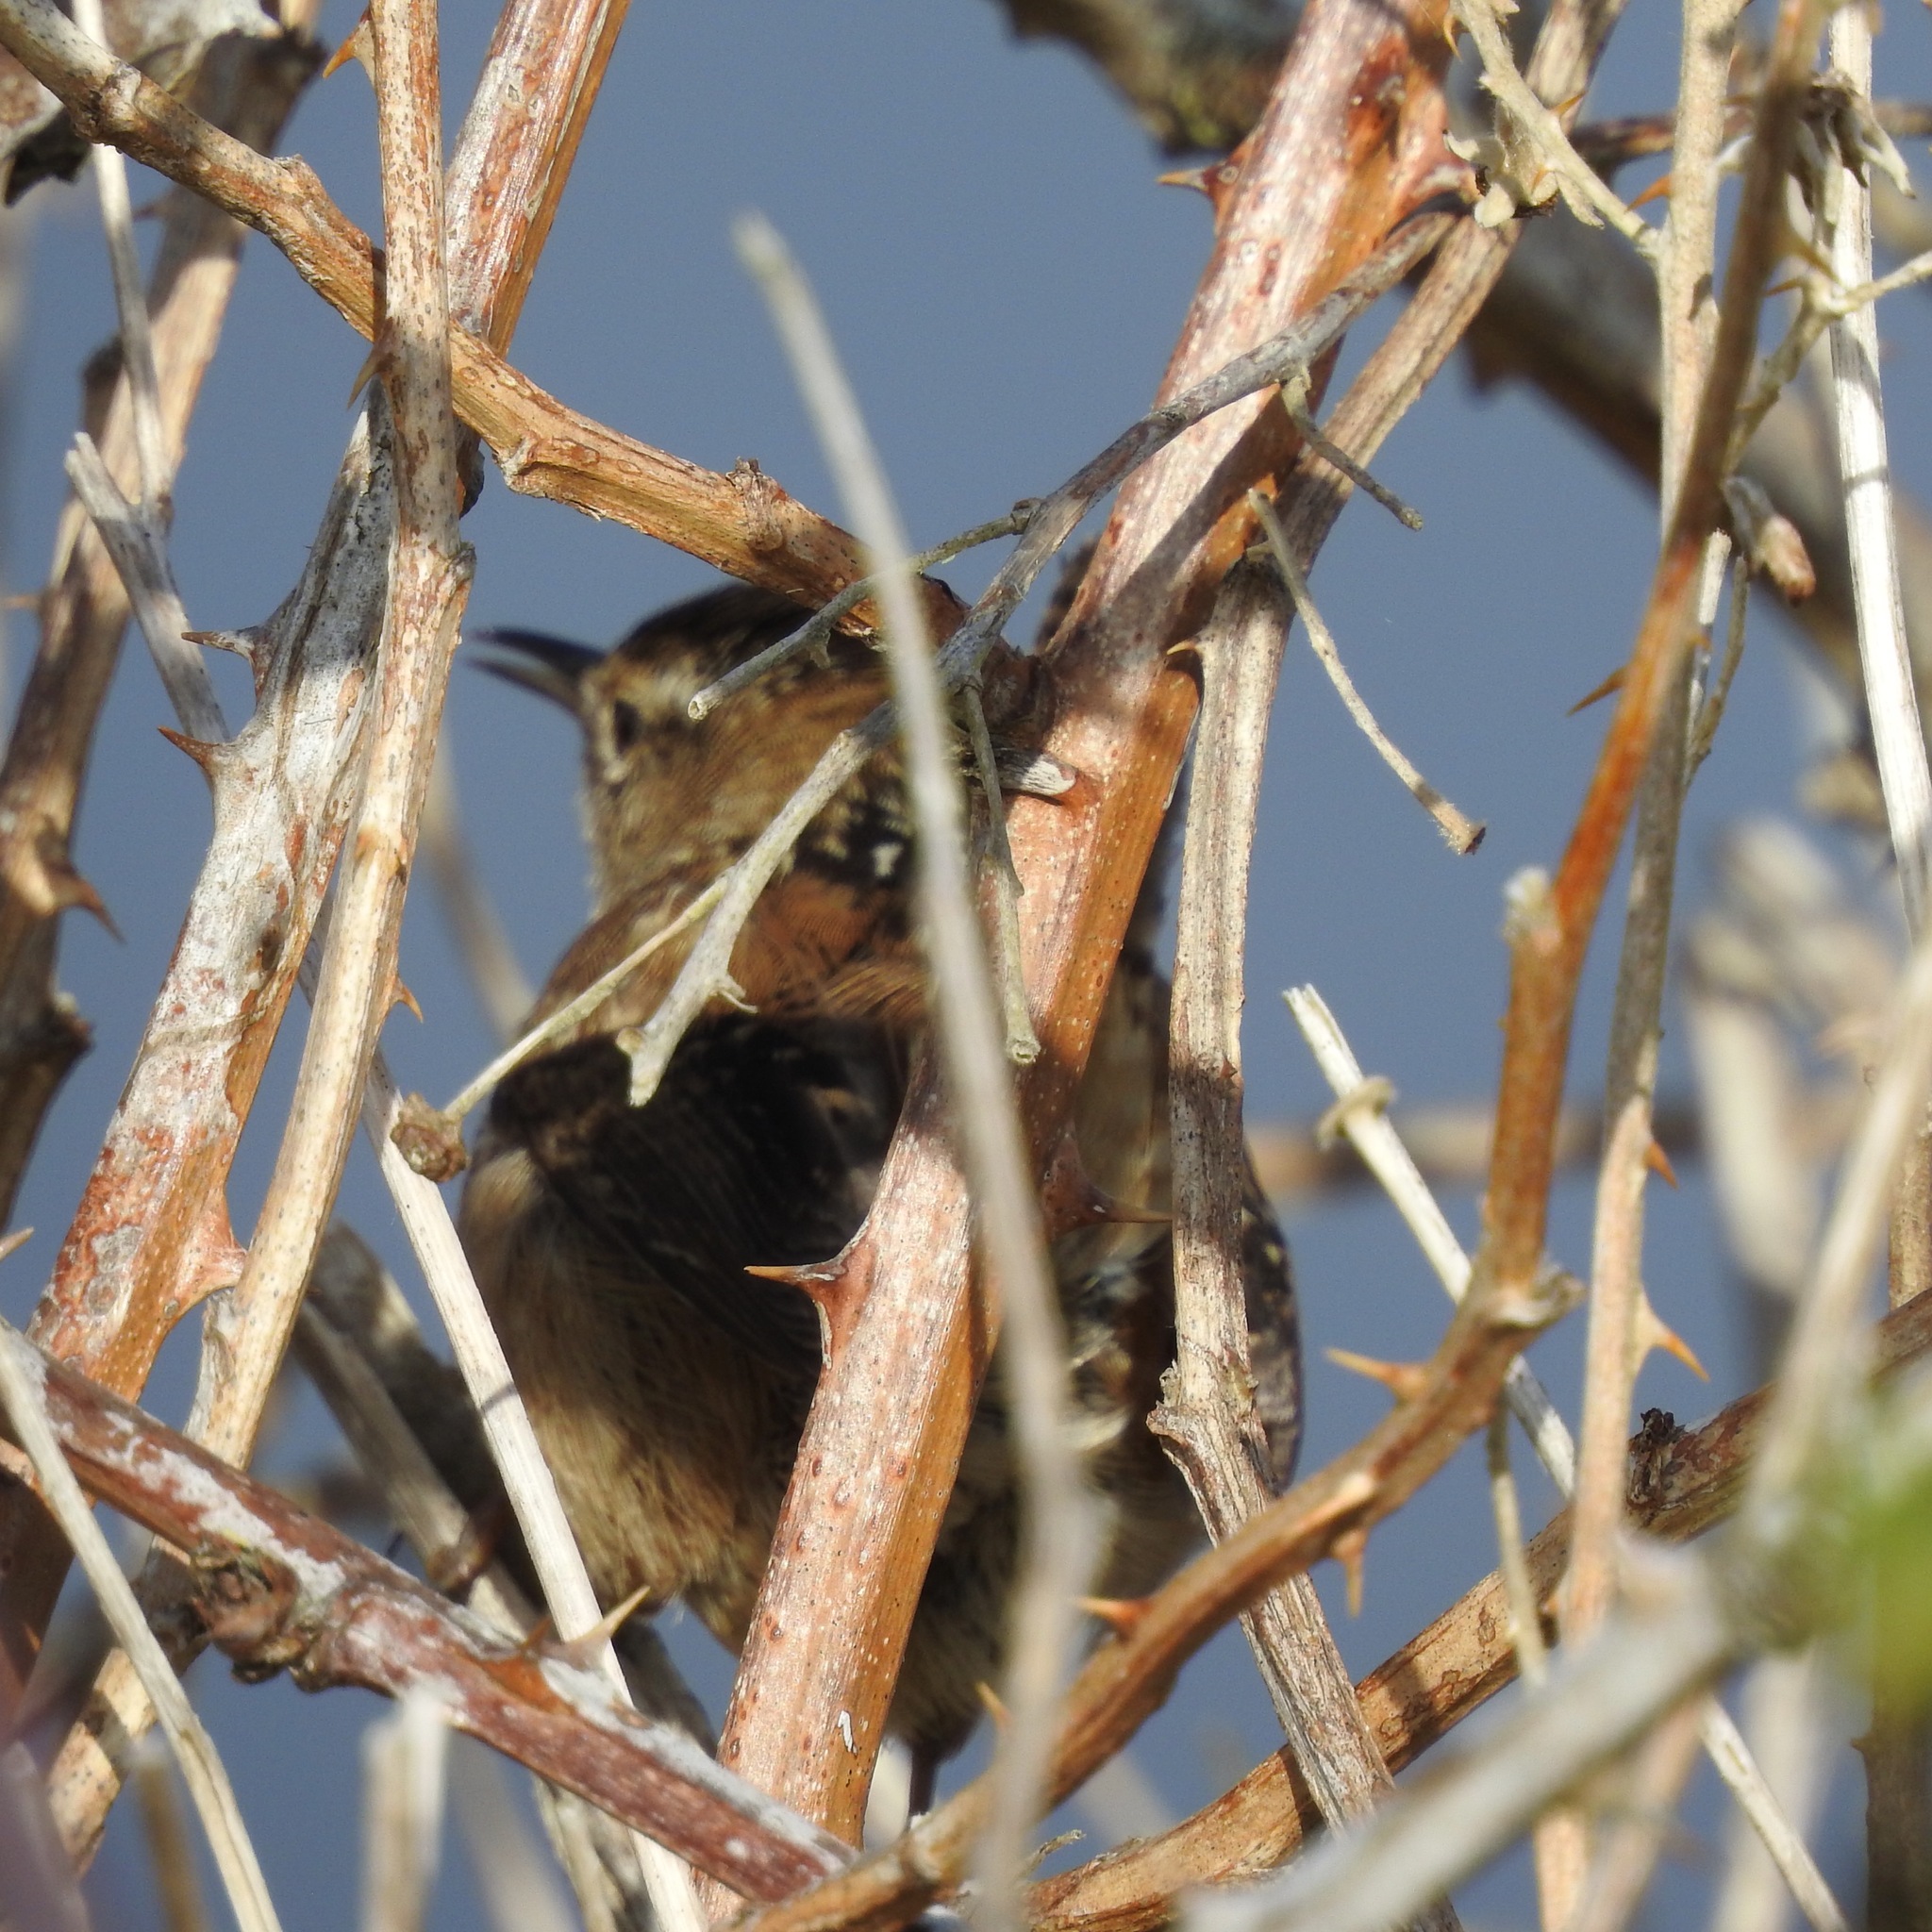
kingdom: Animalia
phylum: Chordata
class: Aves
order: Passeriformes
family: Troglodytidae
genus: Cistothorus
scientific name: Cistothorus palustris
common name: Marsh wren
